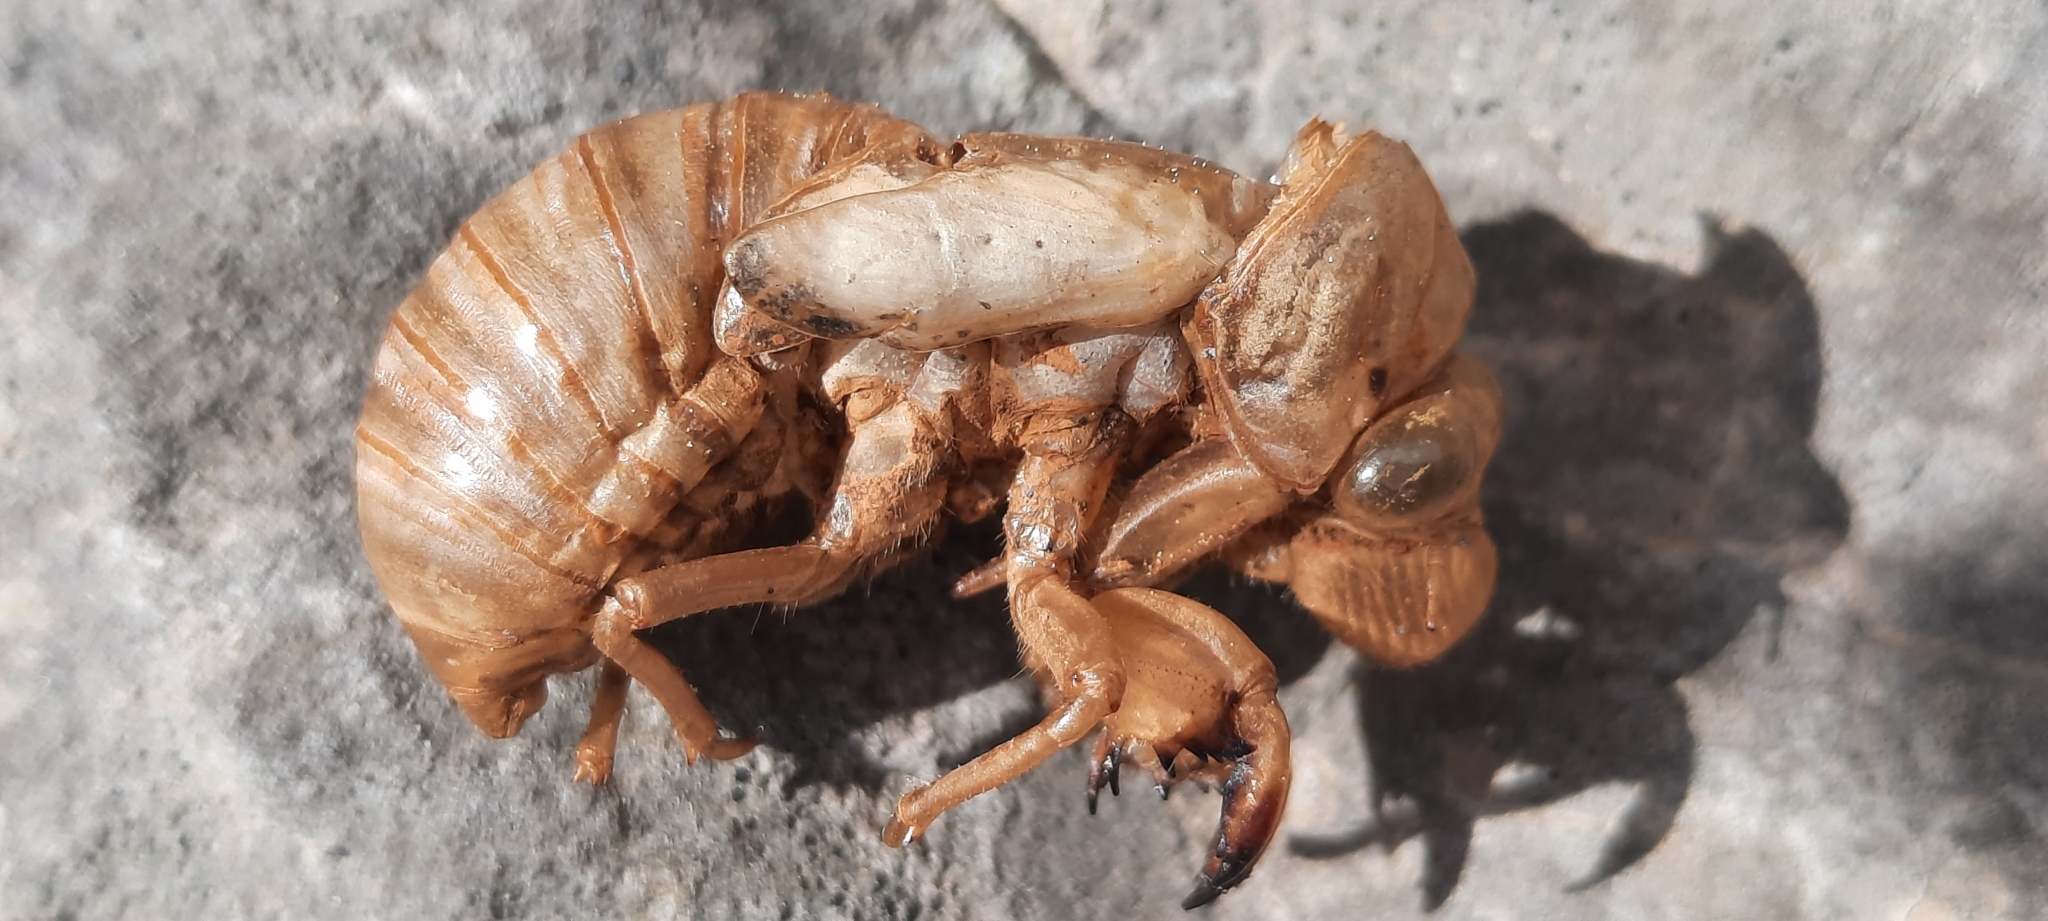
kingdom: Animalia
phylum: Arthropoda
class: Insecta
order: Hemiptera
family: Cicadidae
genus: Lyristes
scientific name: Lyristes plebejus
